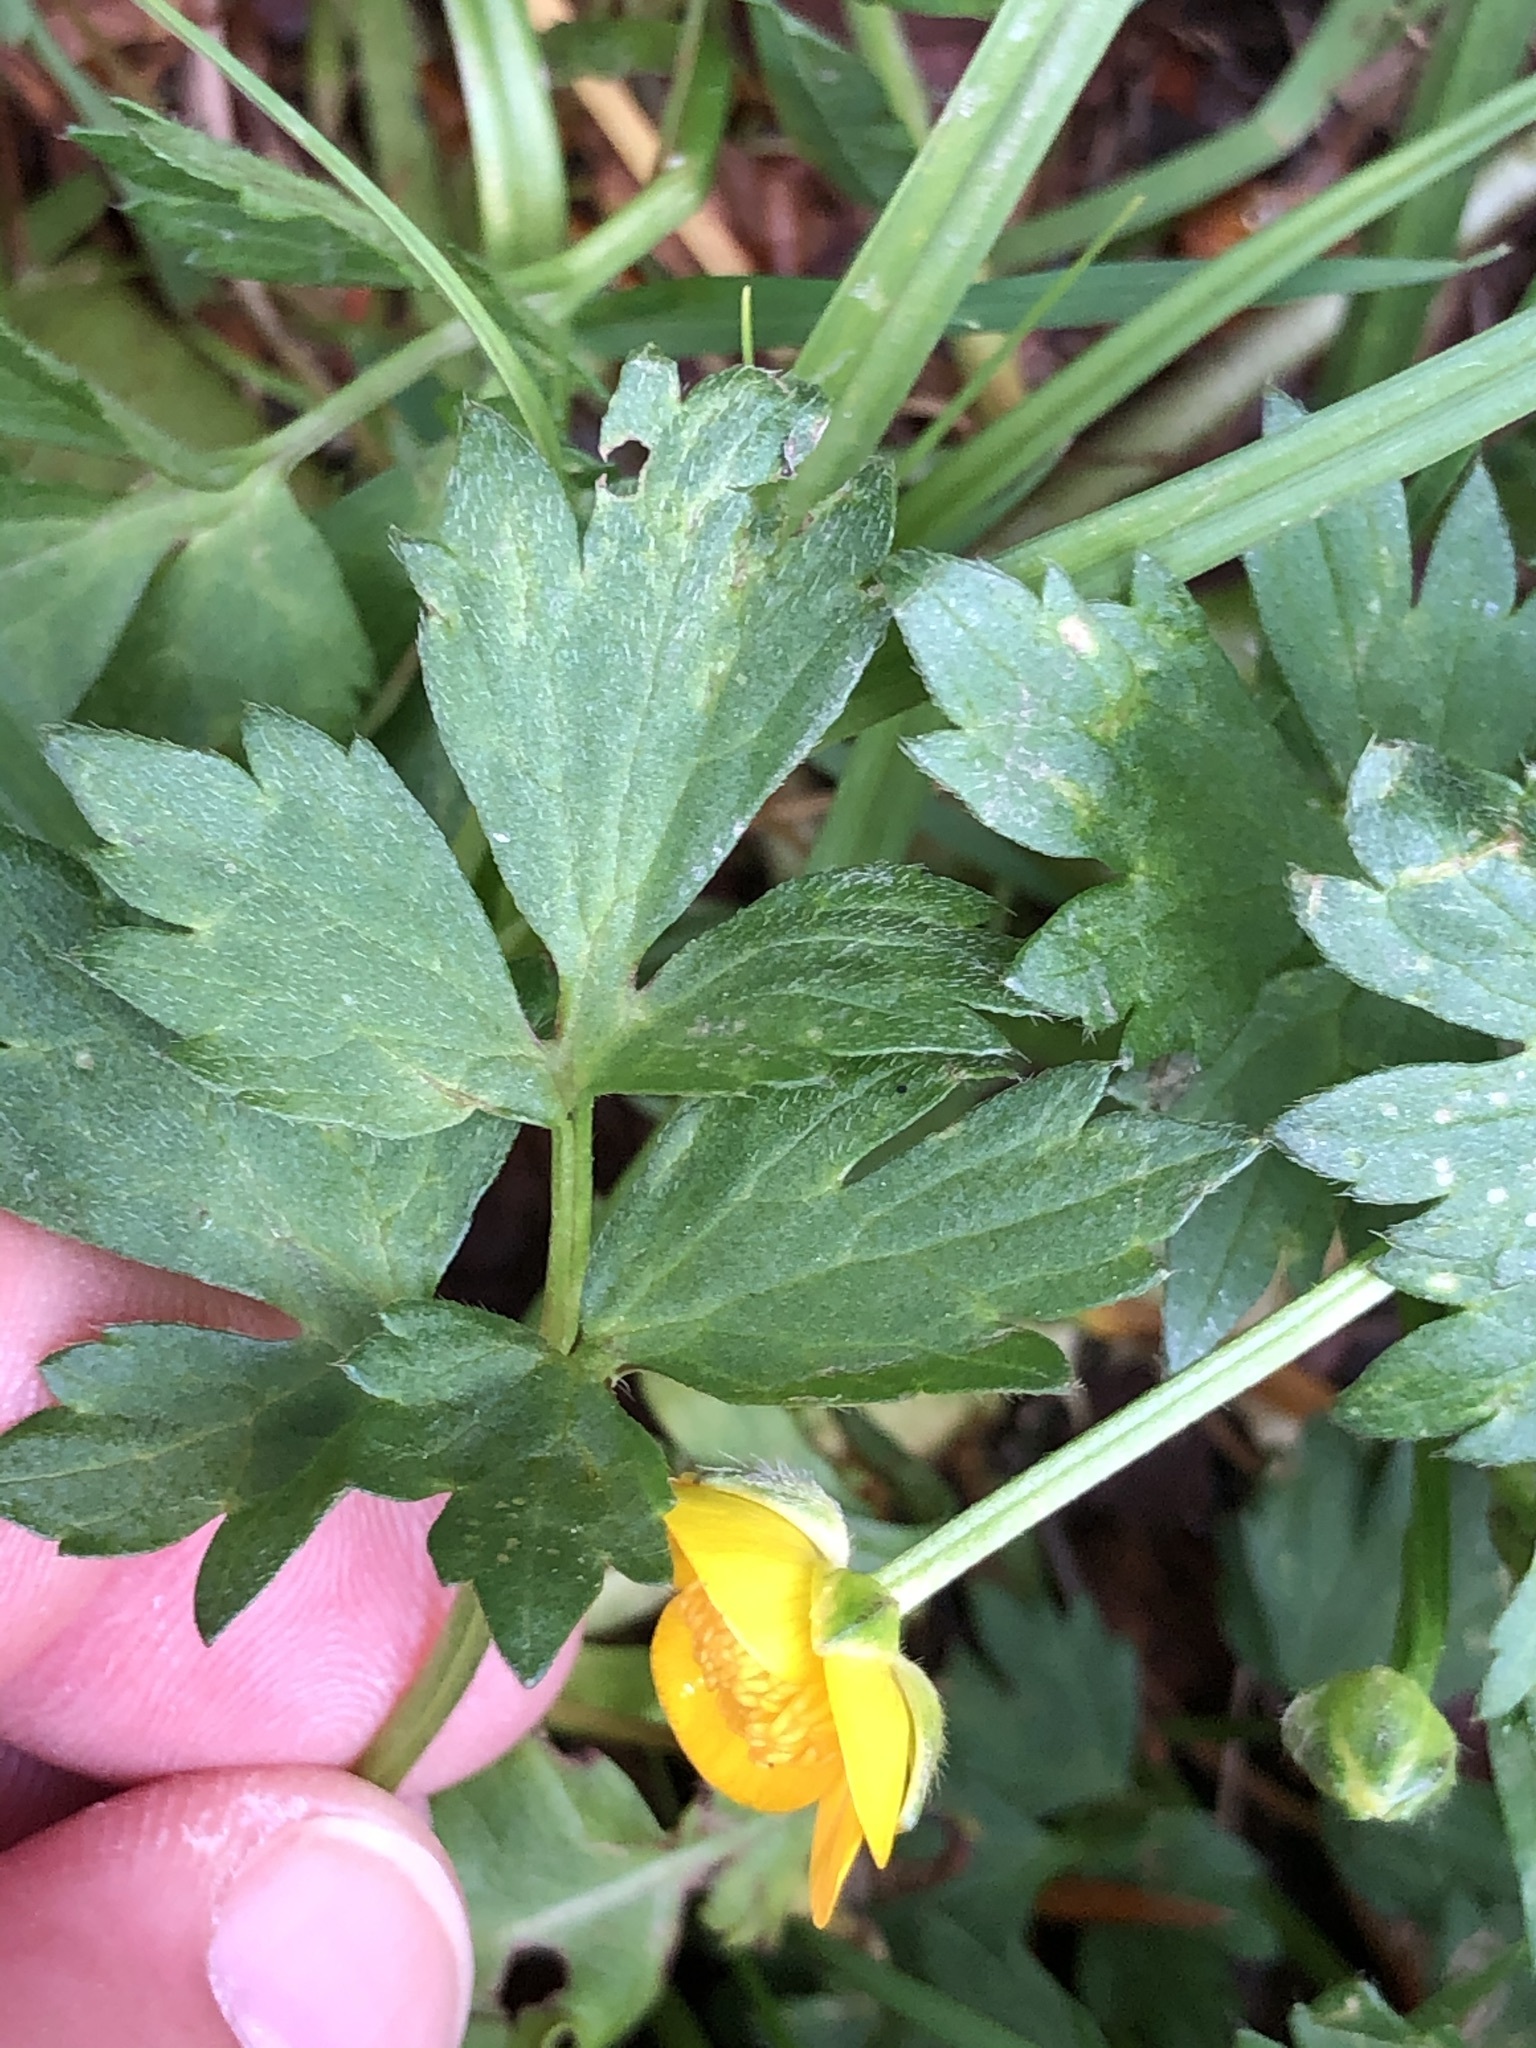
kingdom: Plantae
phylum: Tracheophyta
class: Magnoliopsida
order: Ranunculales
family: Ranunculaceae
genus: Ranunculus
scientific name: Ranunculus repens
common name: Creeping buttercup
